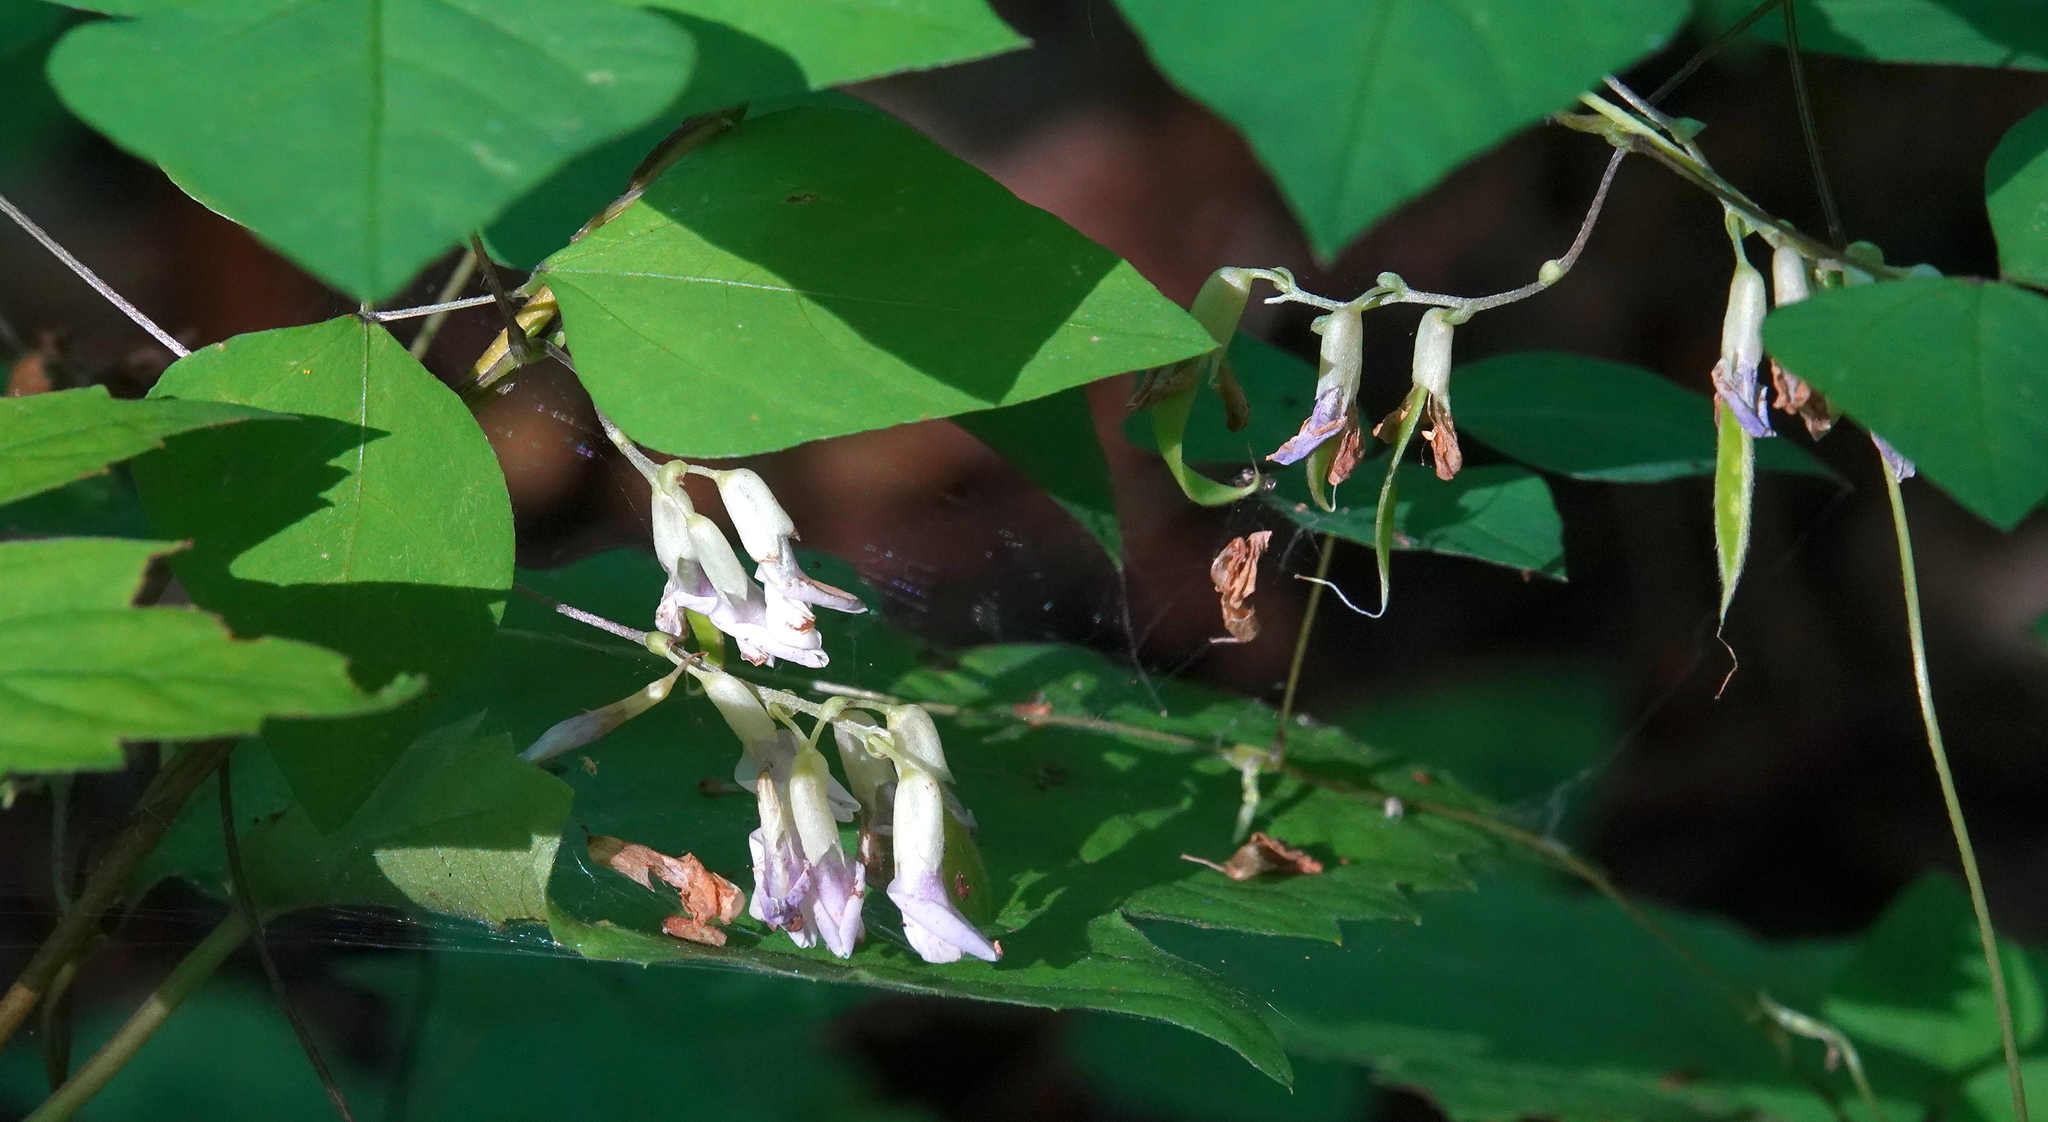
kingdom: Plantae
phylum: Tracheophyta
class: Magnoliopsida
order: Fabales
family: Fabaceae
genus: Amphicarpaea
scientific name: Amphicarpaea bracteata
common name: American hog peanut
